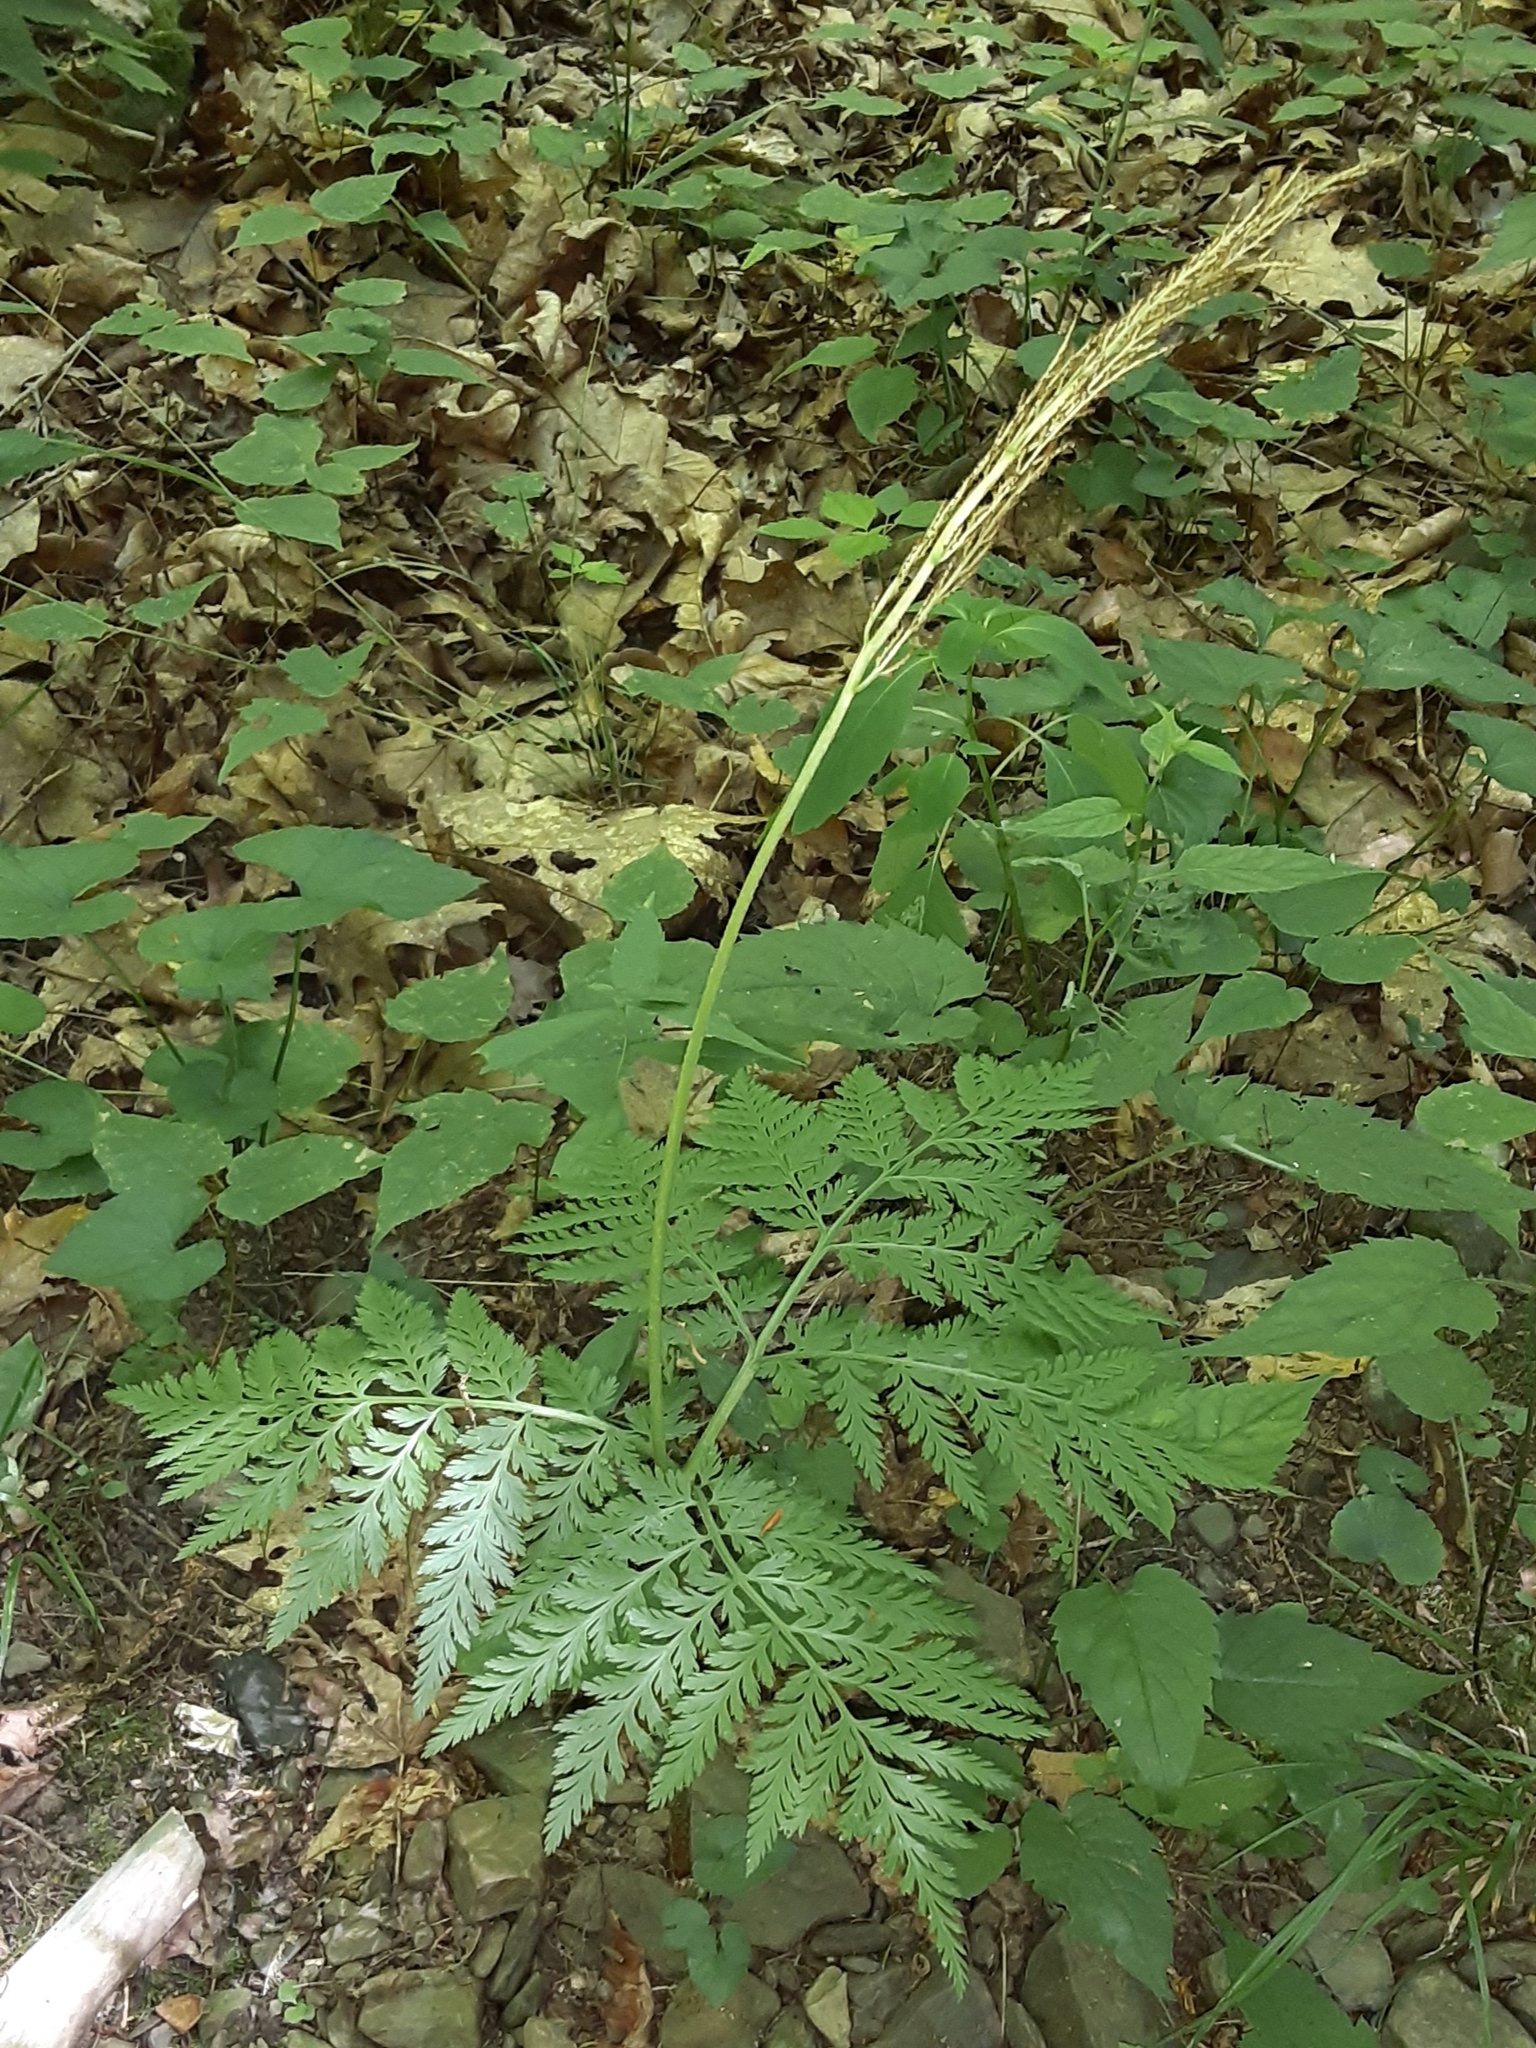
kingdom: Plantae
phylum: Tracheophyta
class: Polypodiopsida
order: Ophioglossales
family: Ophioglossaceae
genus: Botrypus
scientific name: Botrypus virginianus
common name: Common grapefern
